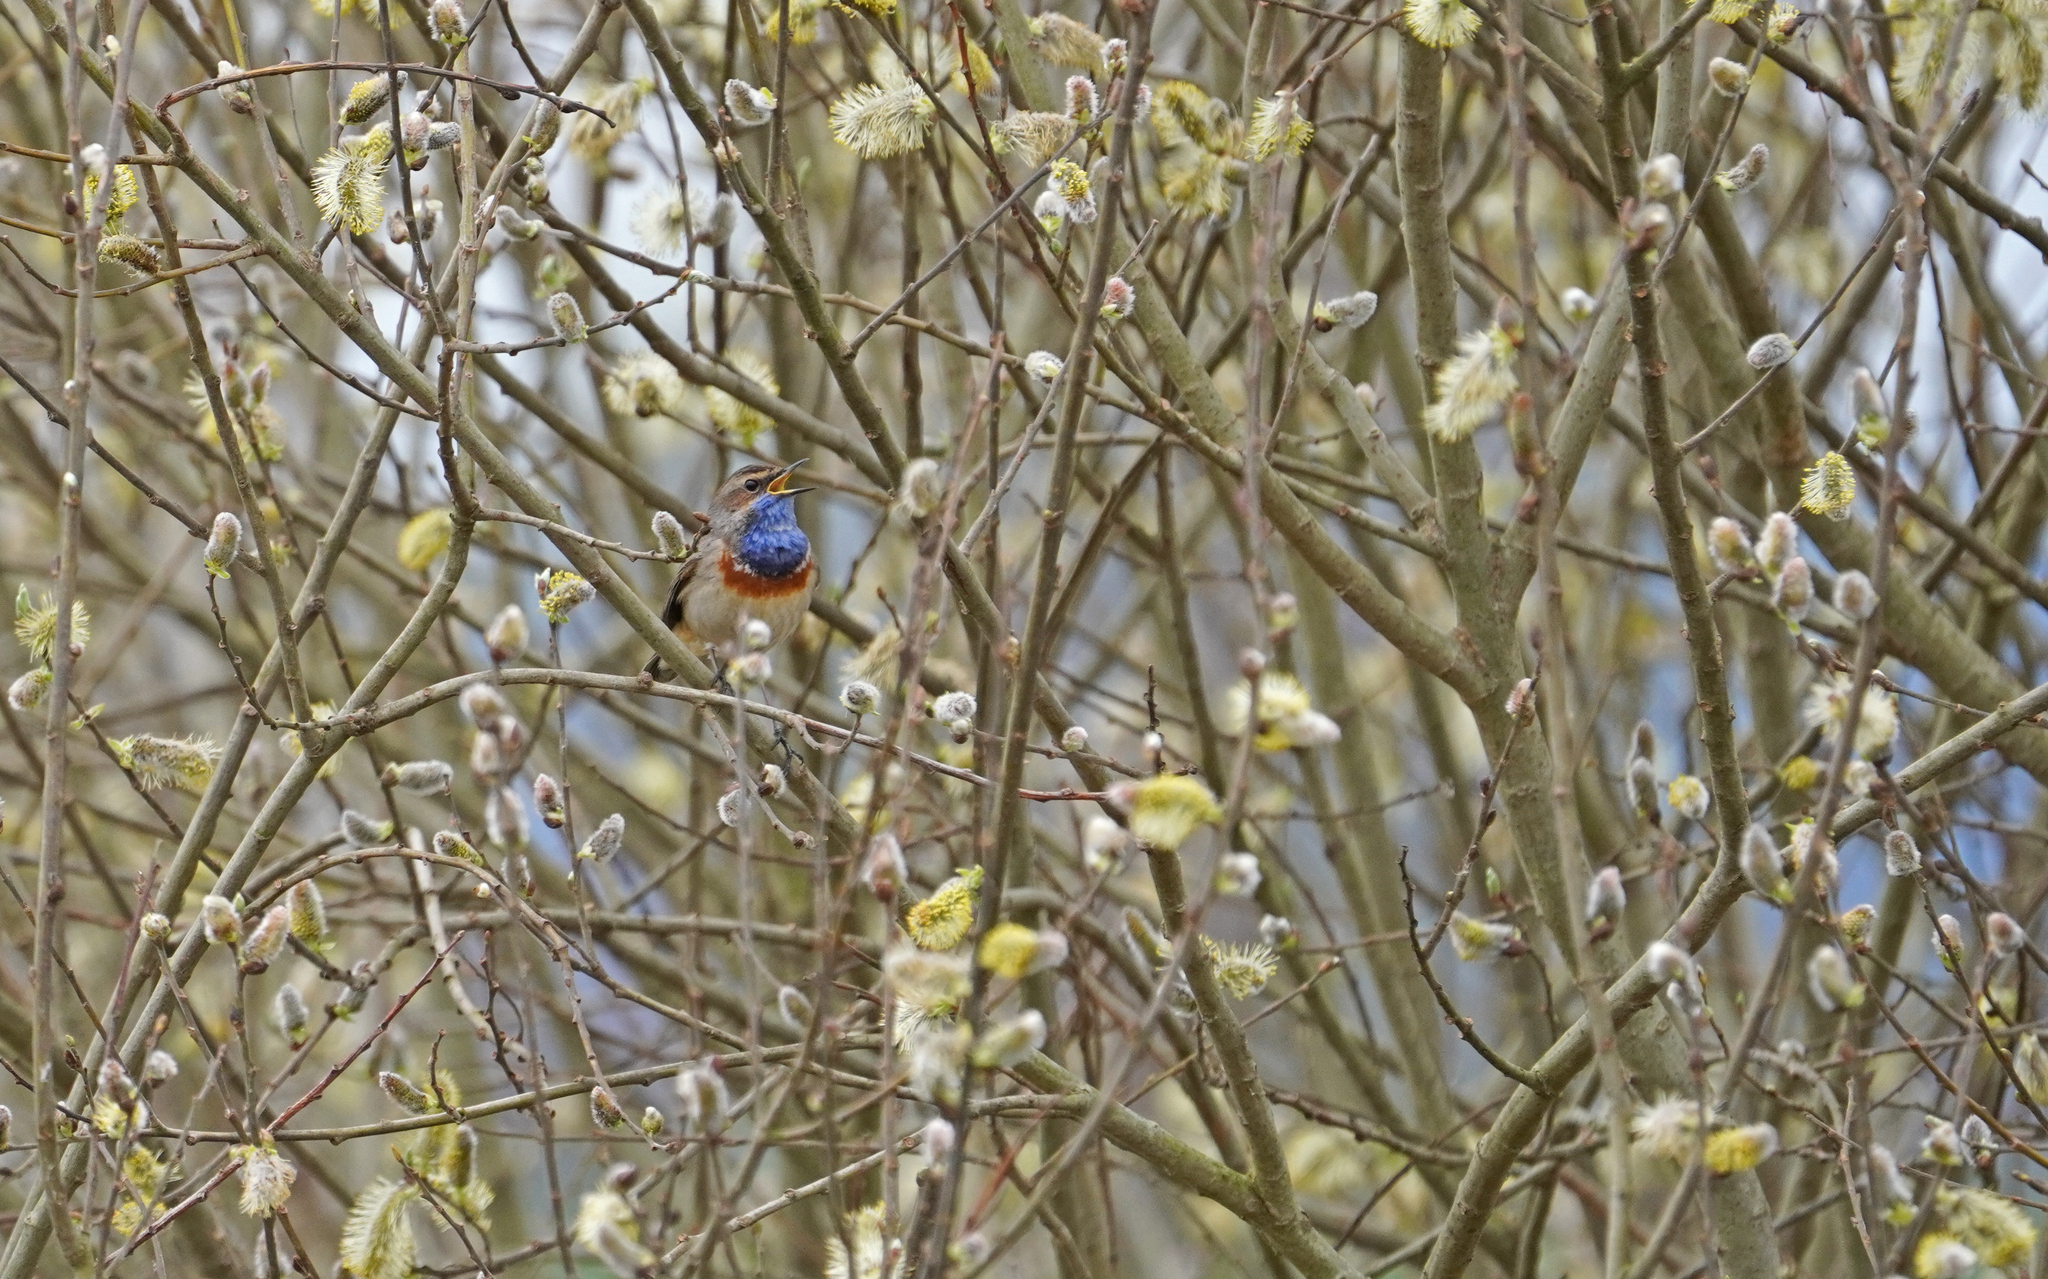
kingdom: Animalia
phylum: Chordata
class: Aves
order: Passeriformes
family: Muscicapidae
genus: Luscinia
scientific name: Luscinia svecica
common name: Bluethroat
